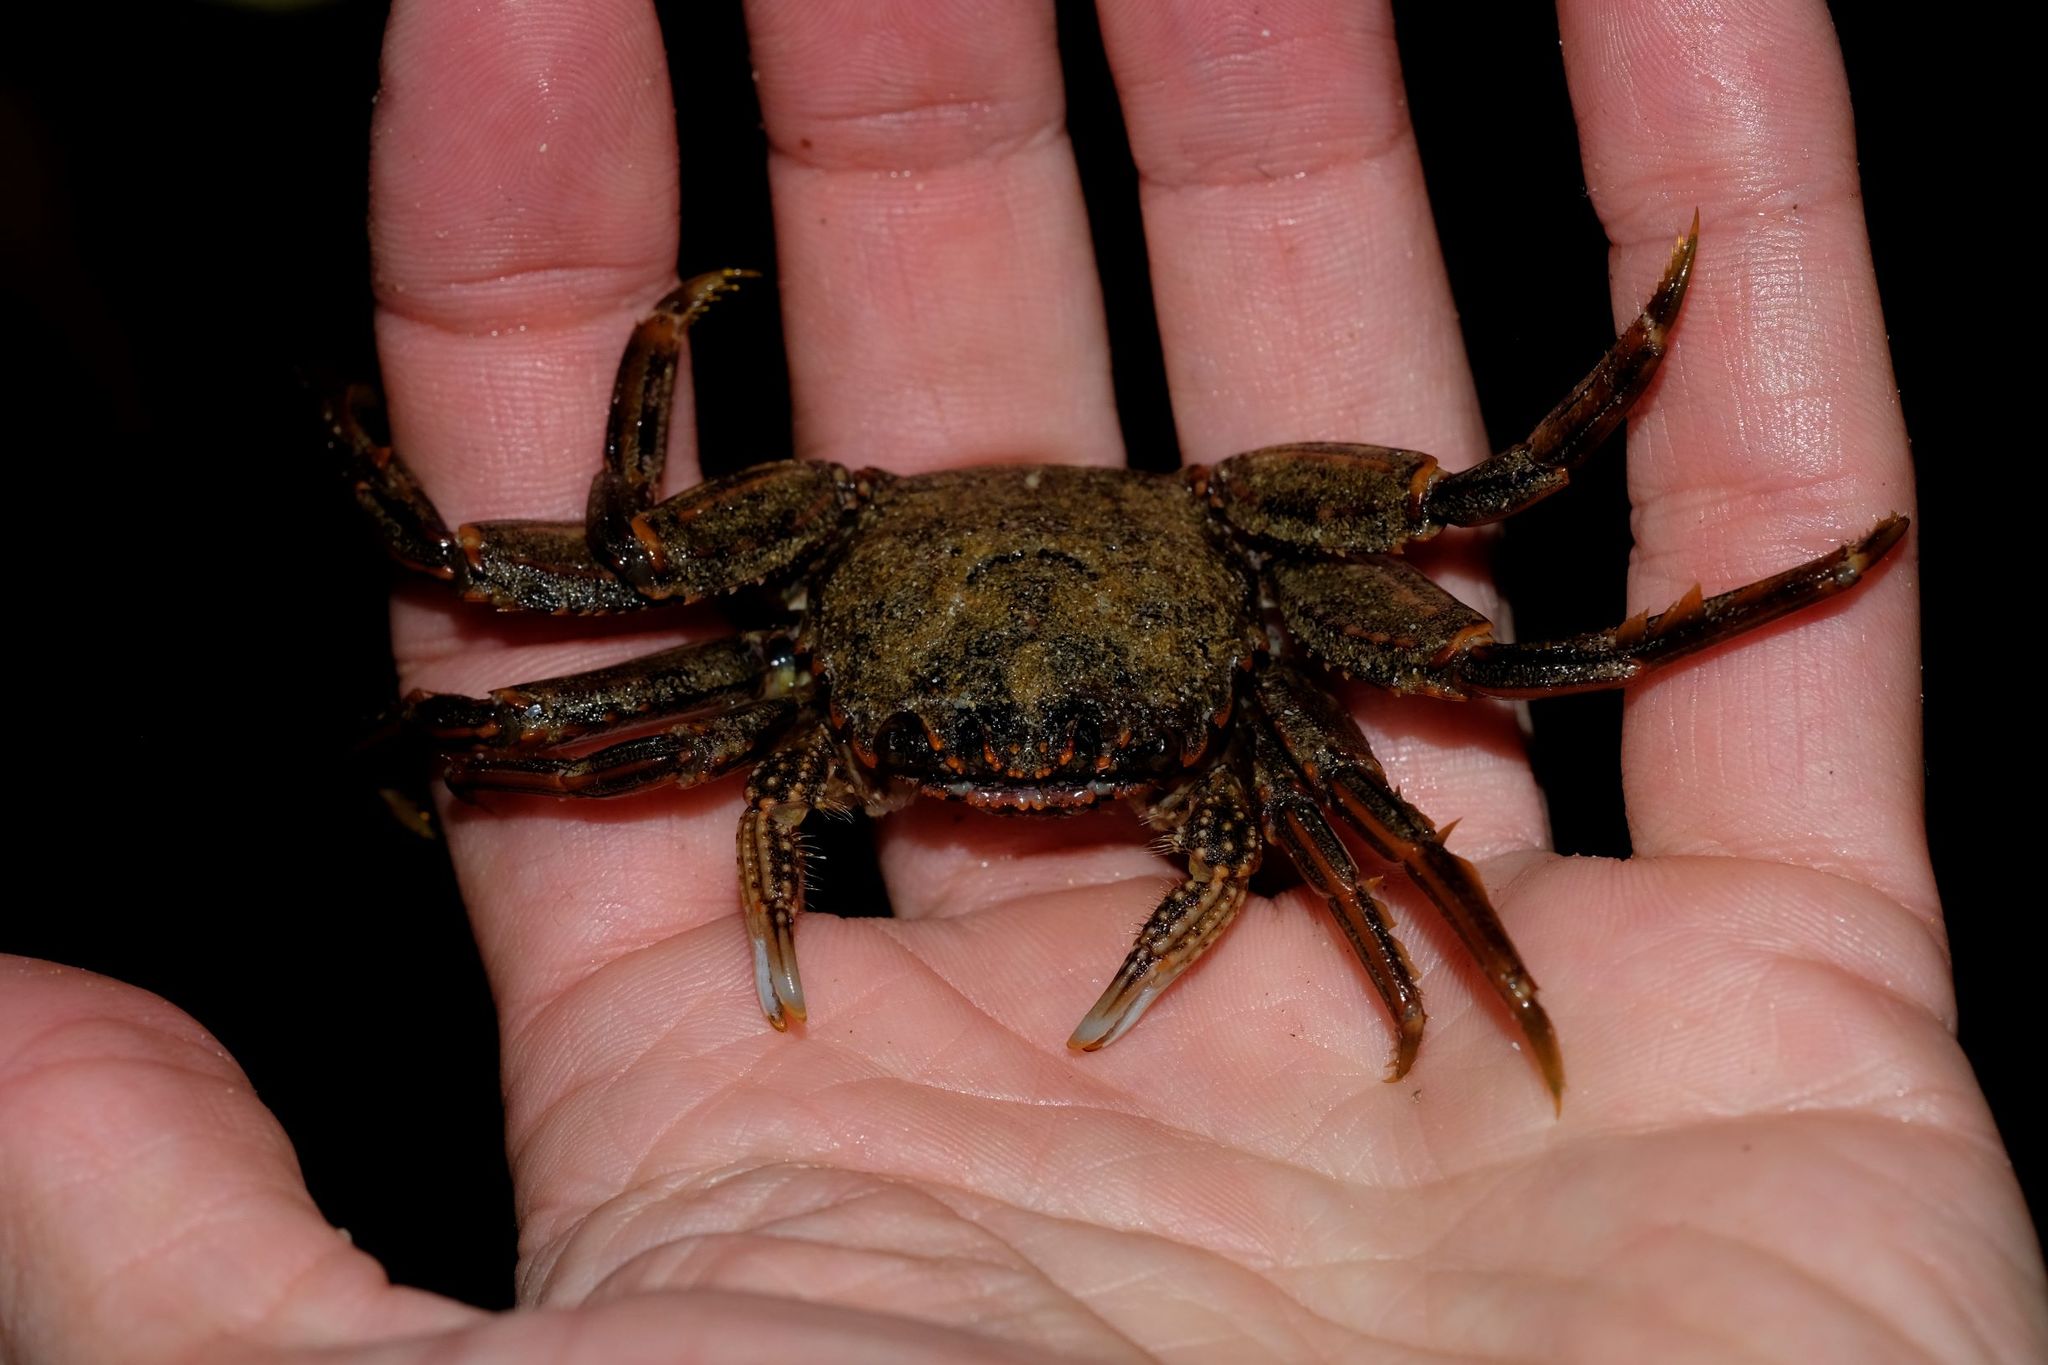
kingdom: Animalia
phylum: Arthropoda
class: Malacostraca
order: Decapoda
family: Plagusiidae
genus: Guinusia
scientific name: Guinusia chabrus
